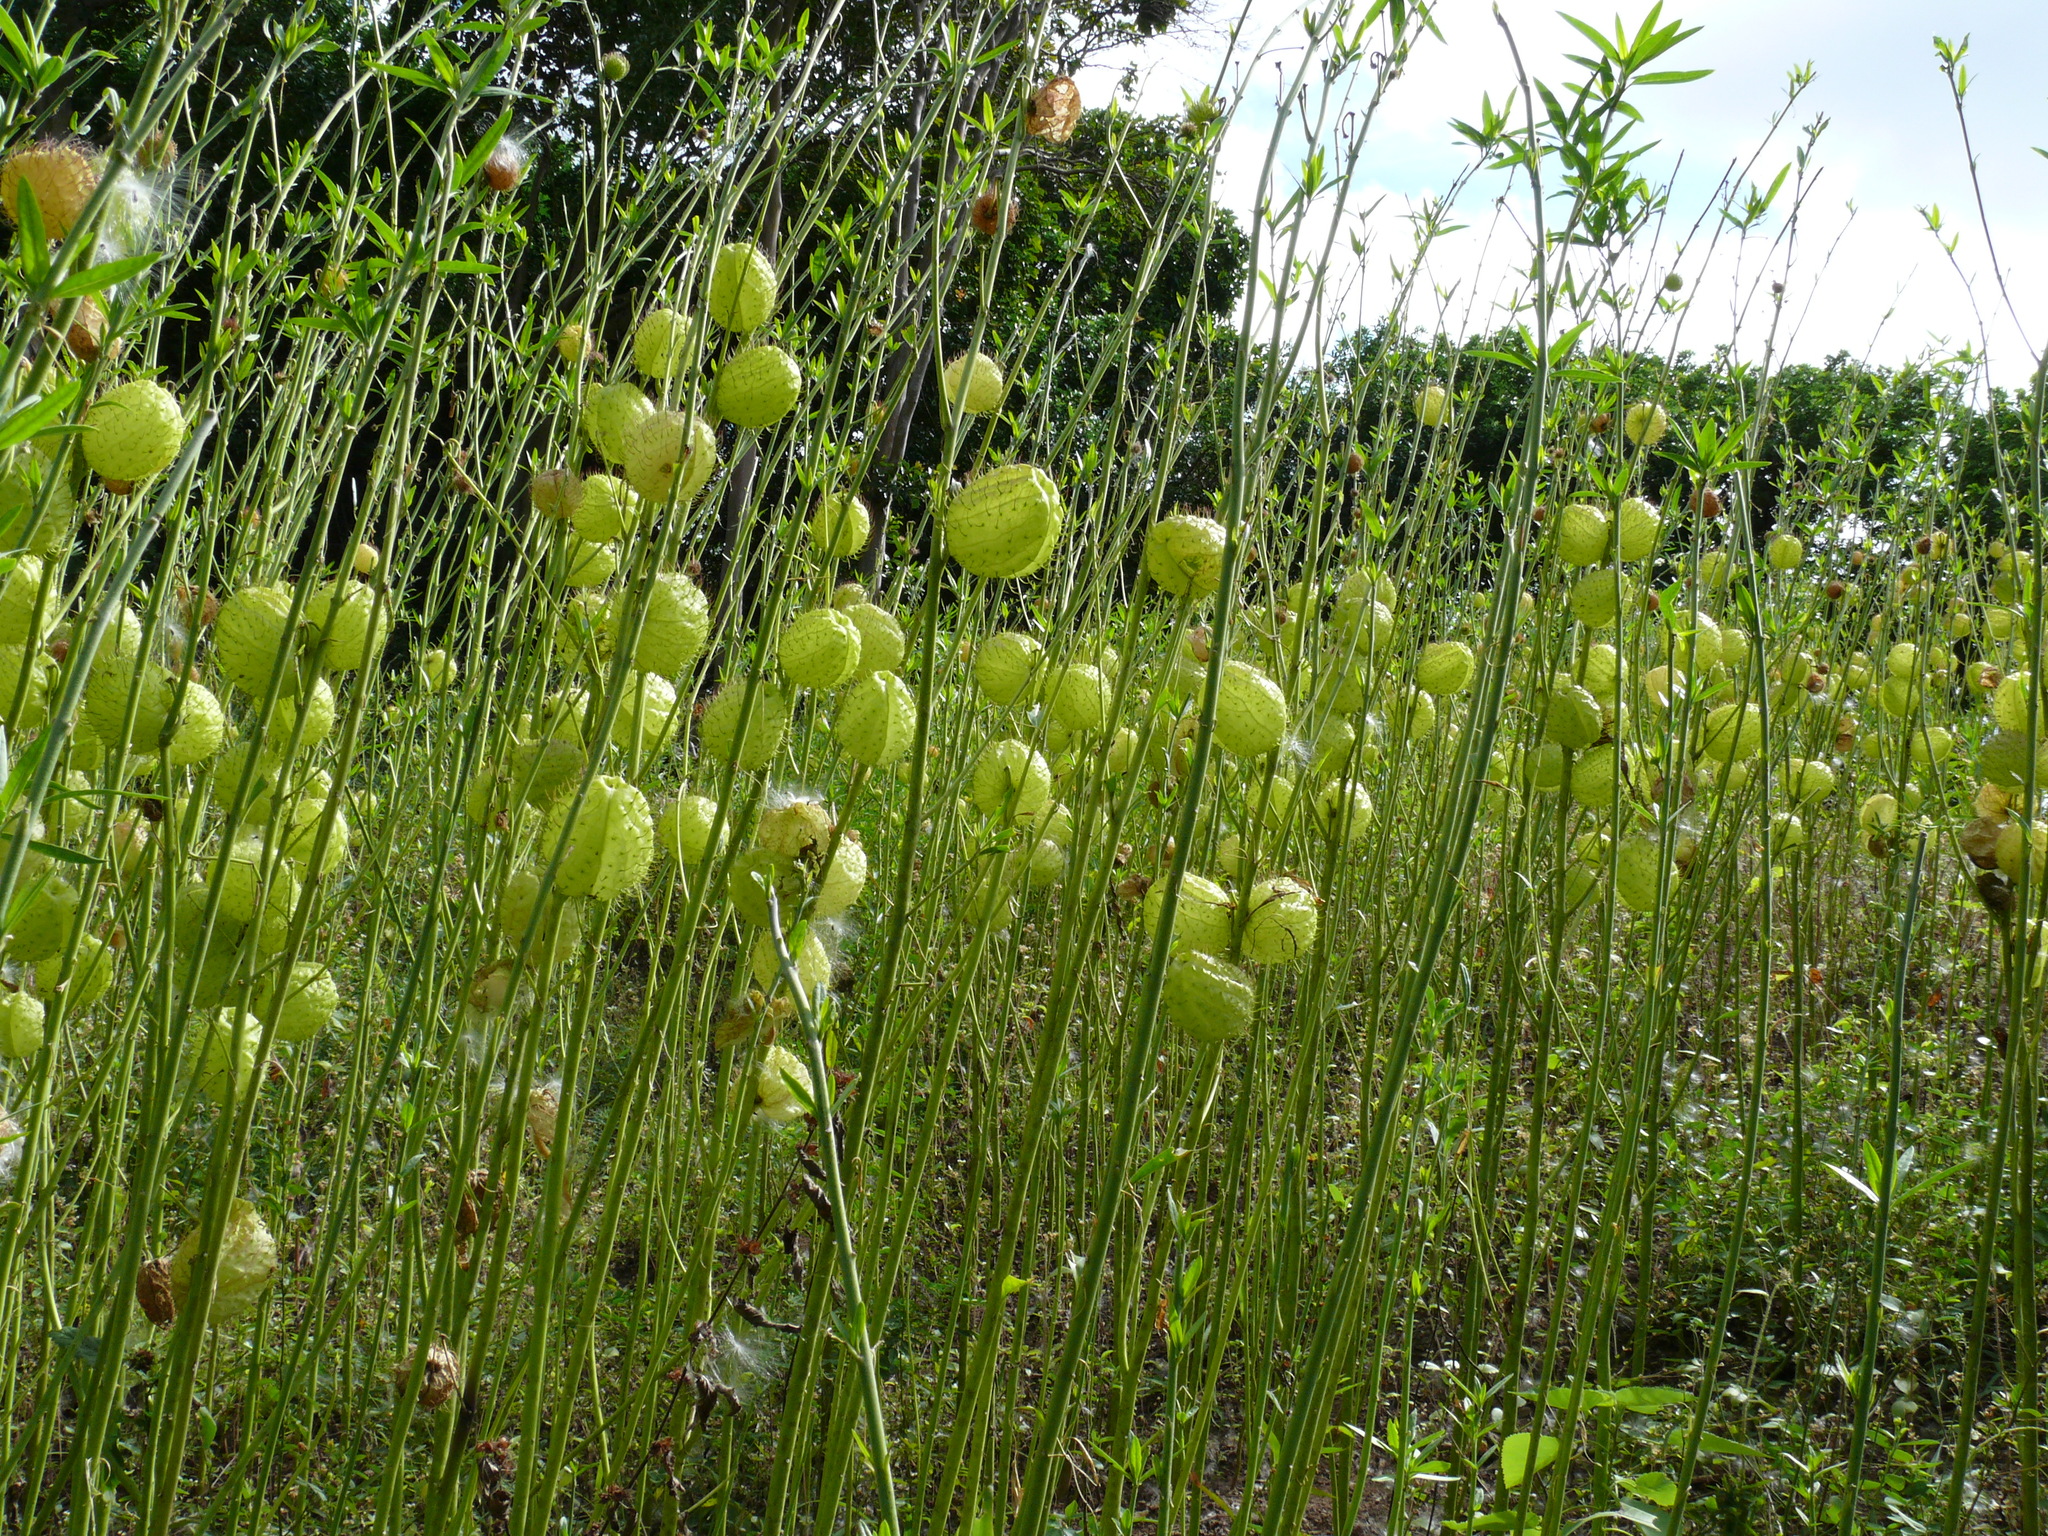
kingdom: Plantae
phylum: Tracheophyta
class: Magnoliopsida
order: Gentianales
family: Apocynaceae
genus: Gomphocarpus
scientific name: Gomphocarpus physocarpus
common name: Balloon cotton bush
